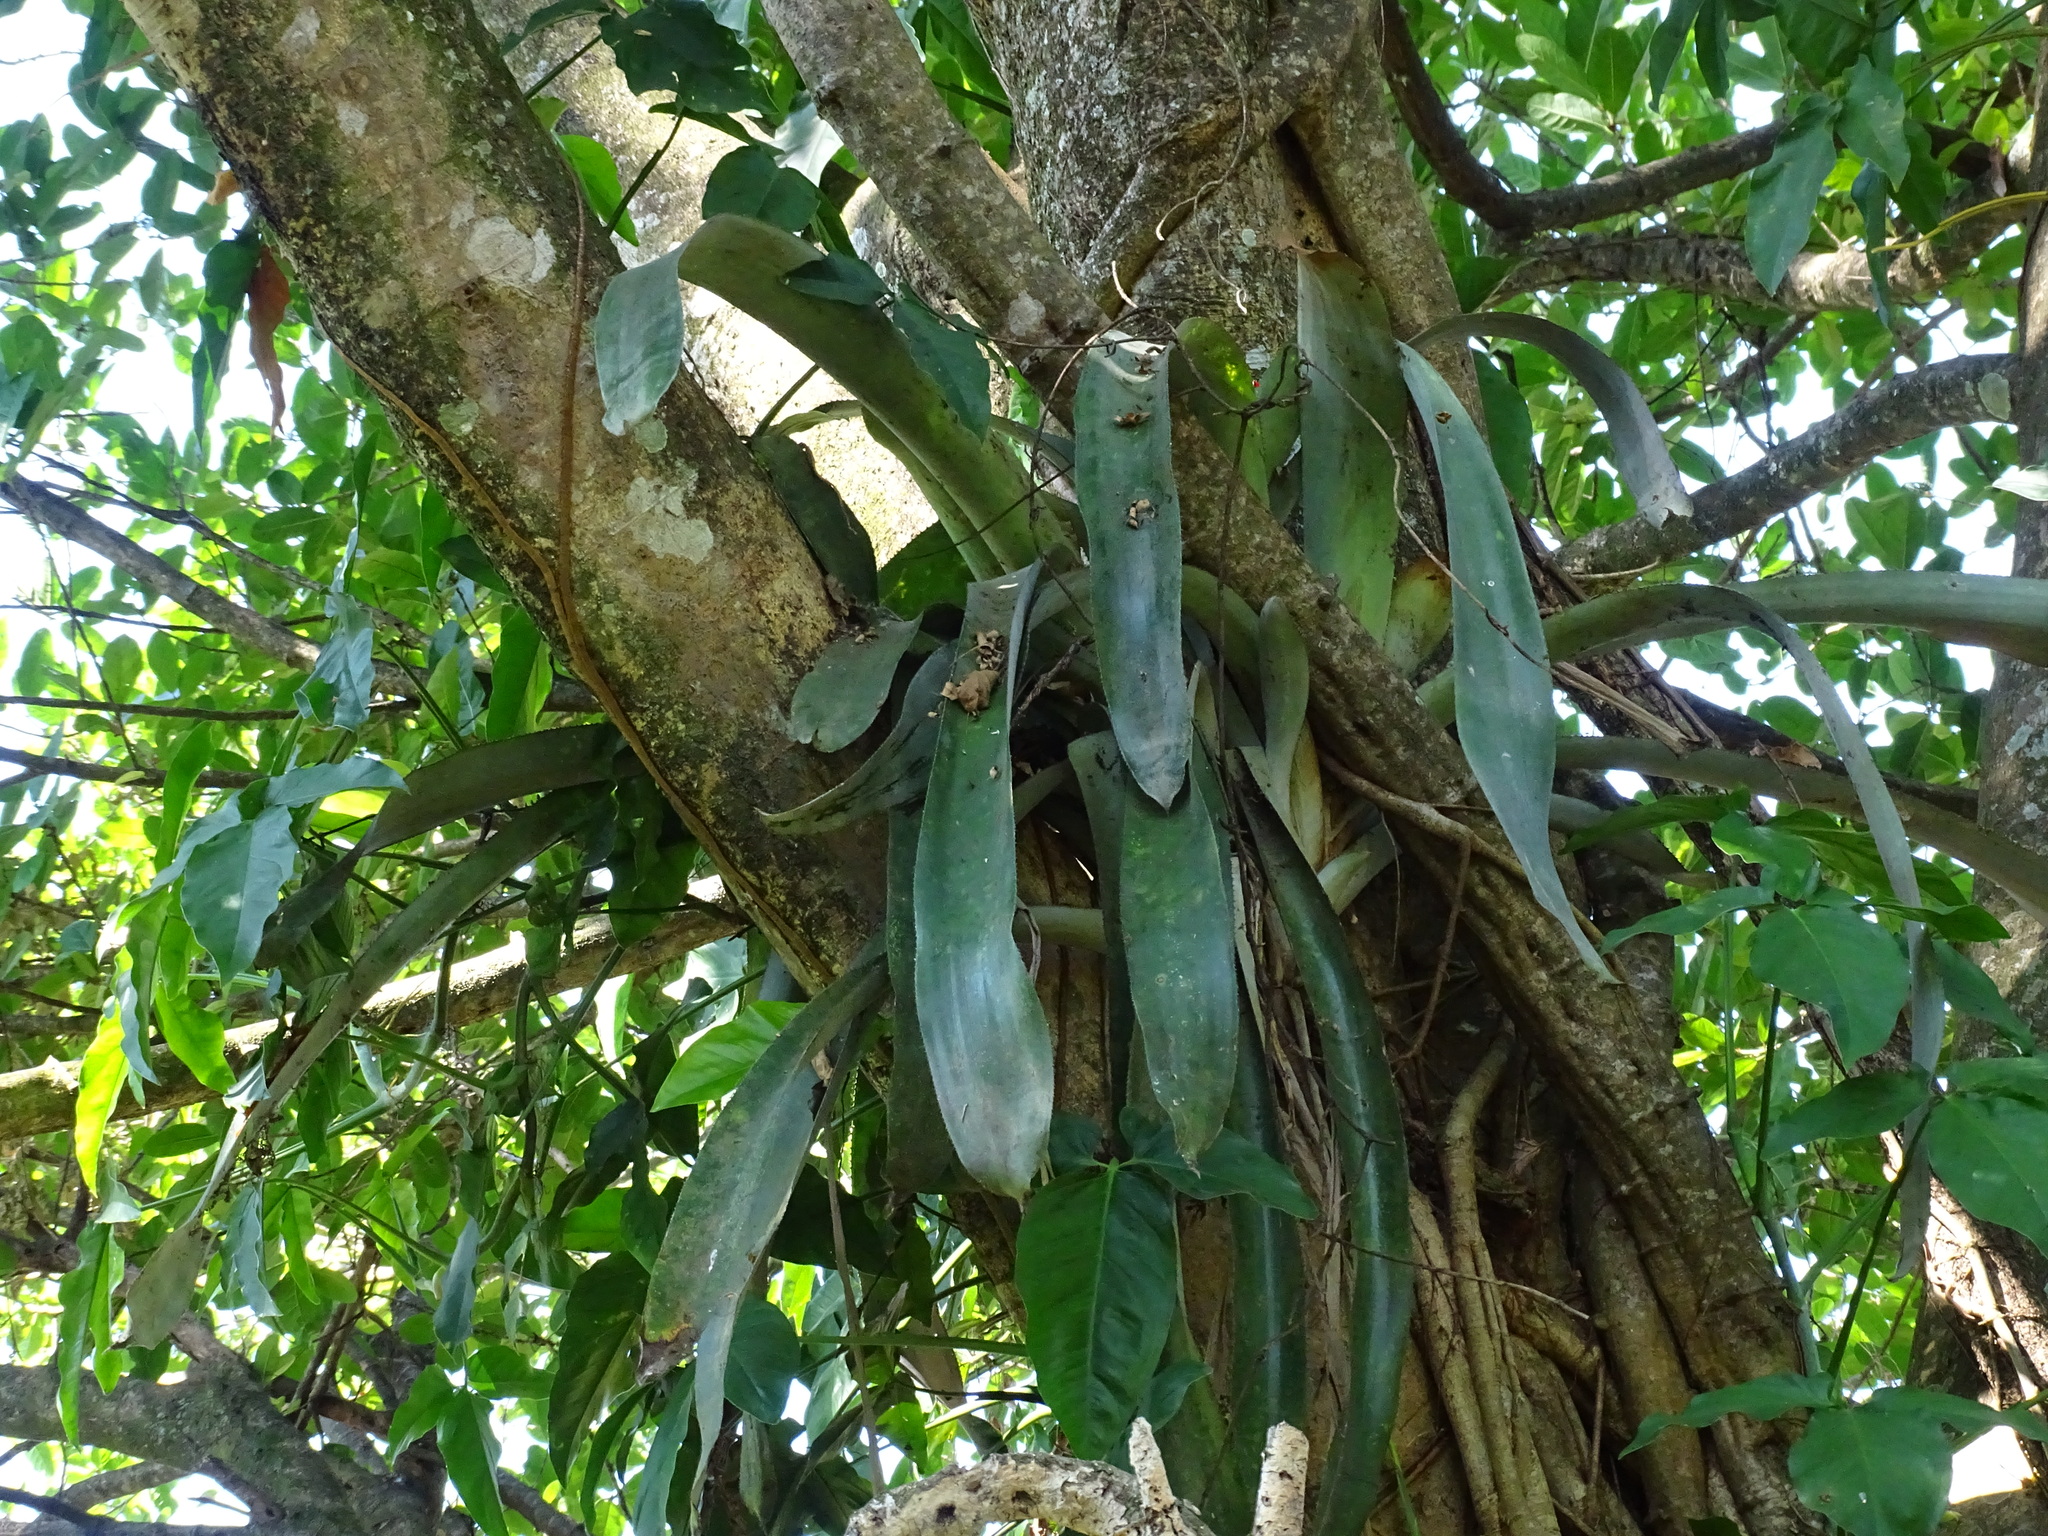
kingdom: Plantae
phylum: Tracheophyta
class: Liliopsida
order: Poales
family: Bromeliaceae
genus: Aechmea
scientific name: Aechmea matudae
